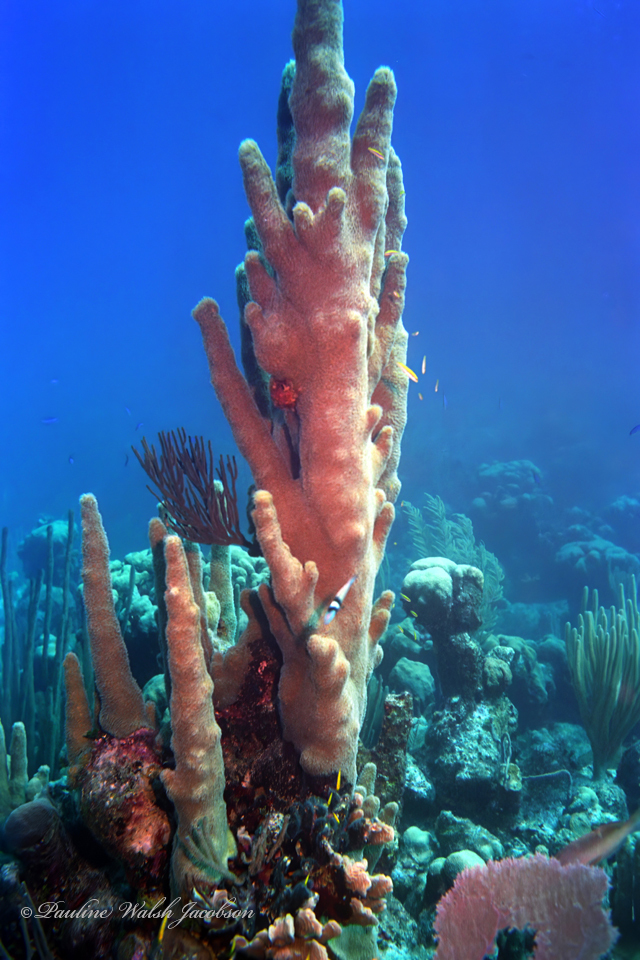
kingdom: Animalia
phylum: Cnidaria
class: Anthozoa
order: Scleractinia
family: Meandrinidae
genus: Dendrogyra
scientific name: Dendrogyra cylindrus
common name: Pillar coral
